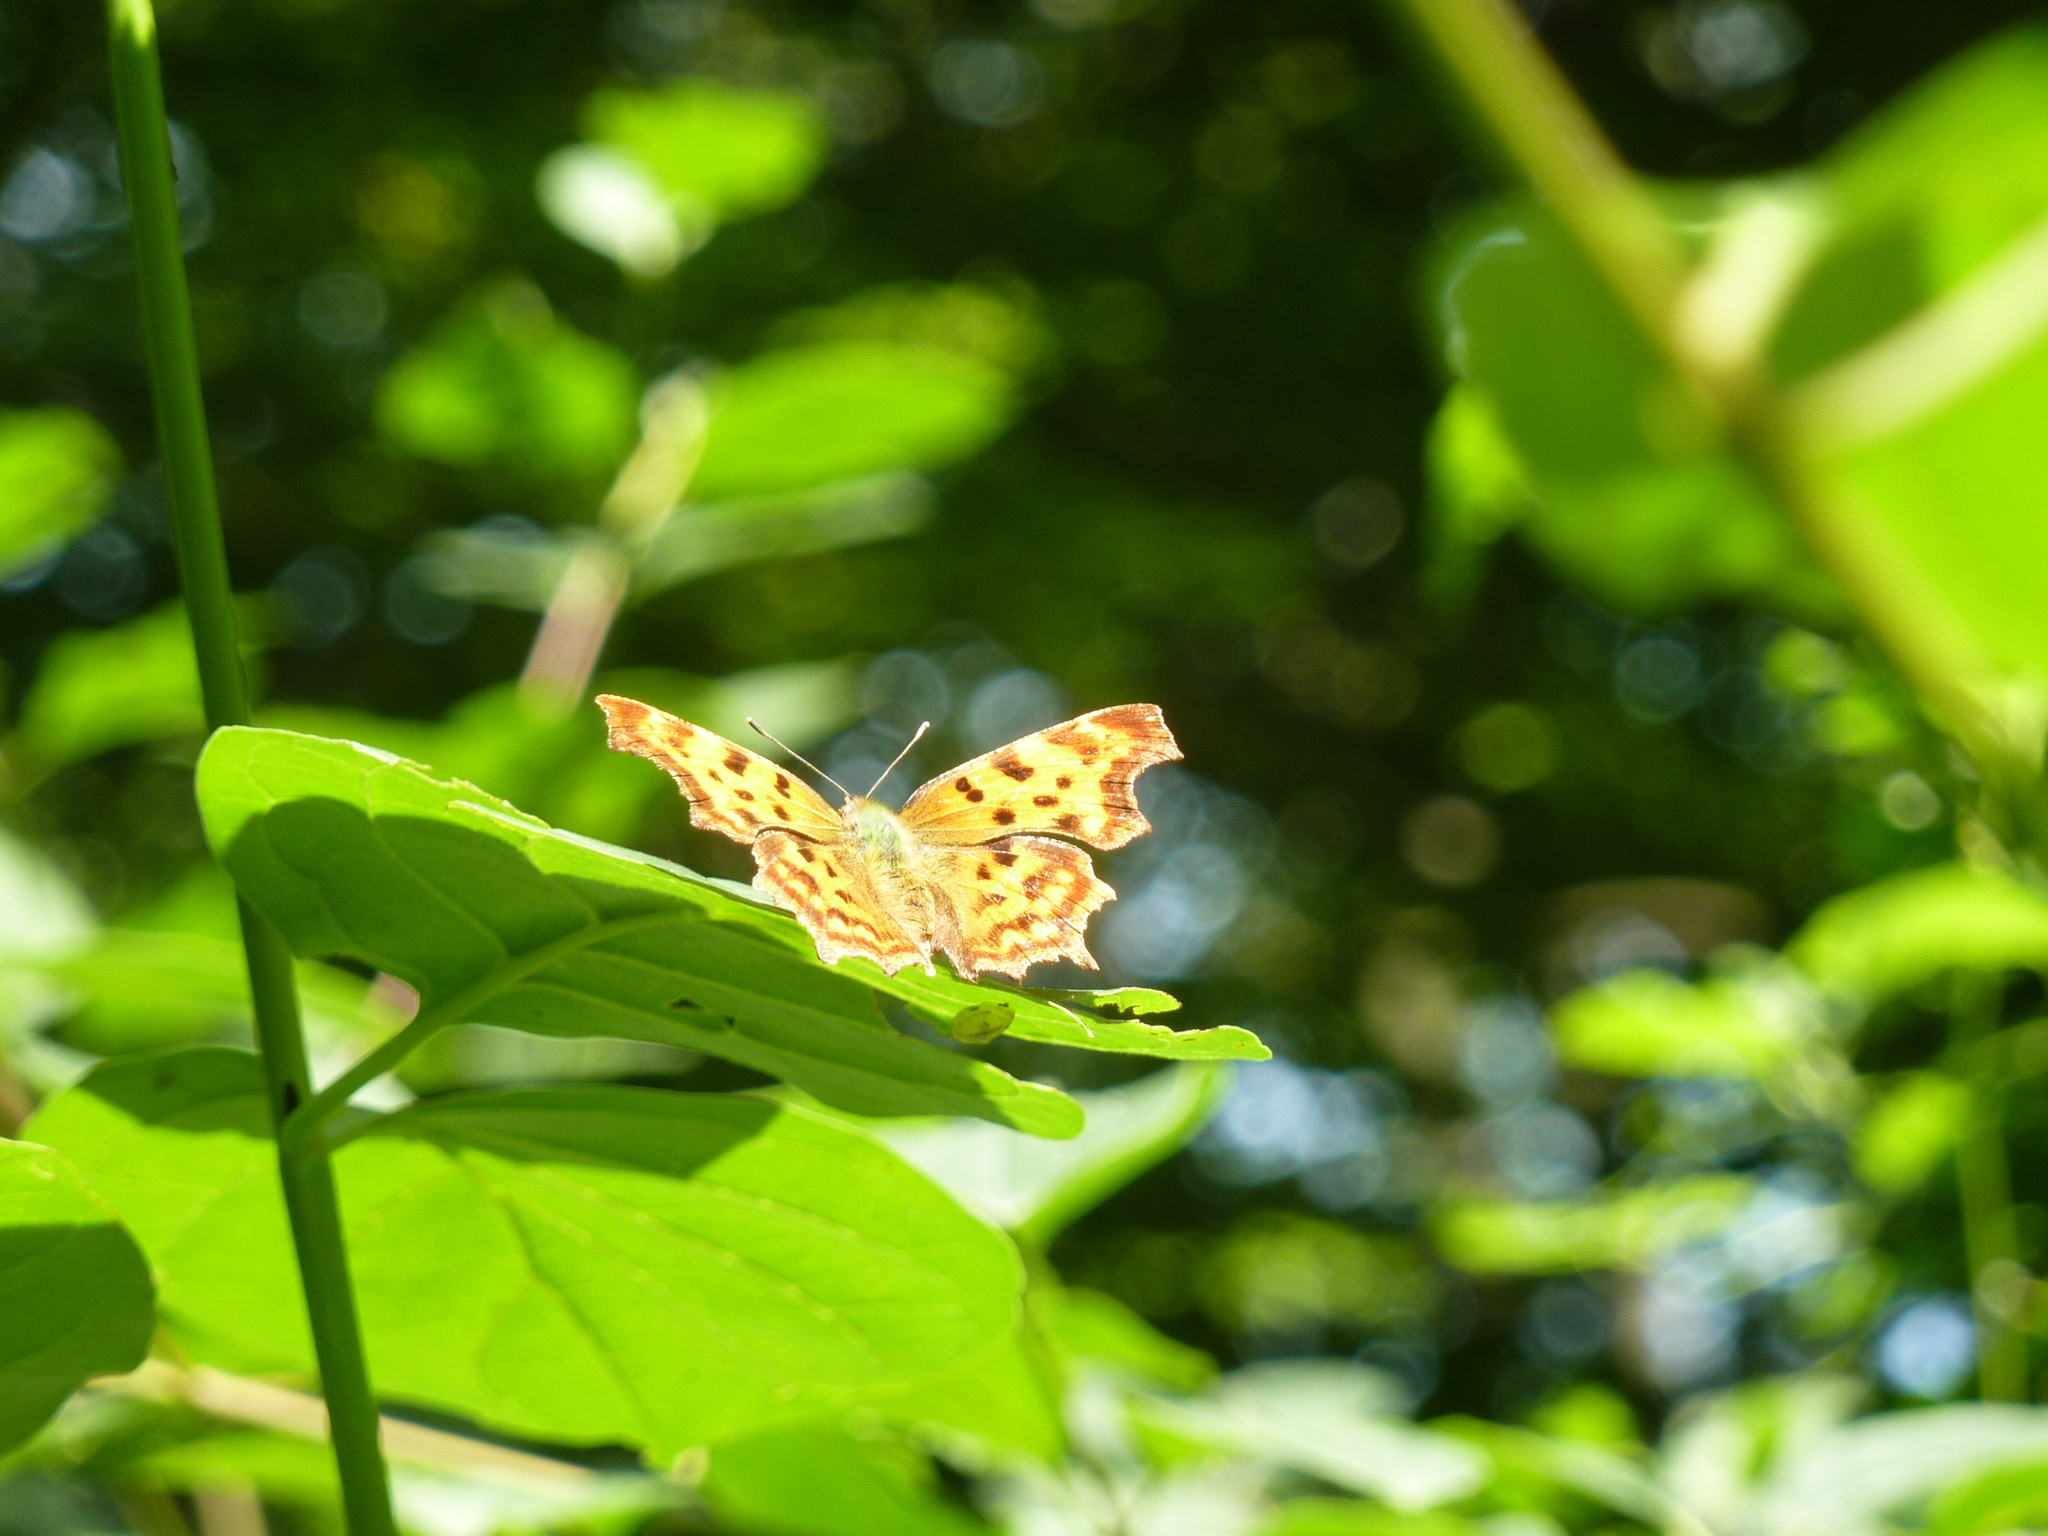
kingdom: Animalia
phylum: Arthropoda
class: Insecta
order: Lepidoptera
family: Nymphalidae
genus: Polygonia
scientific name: Polygonia c-album
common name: Comma
